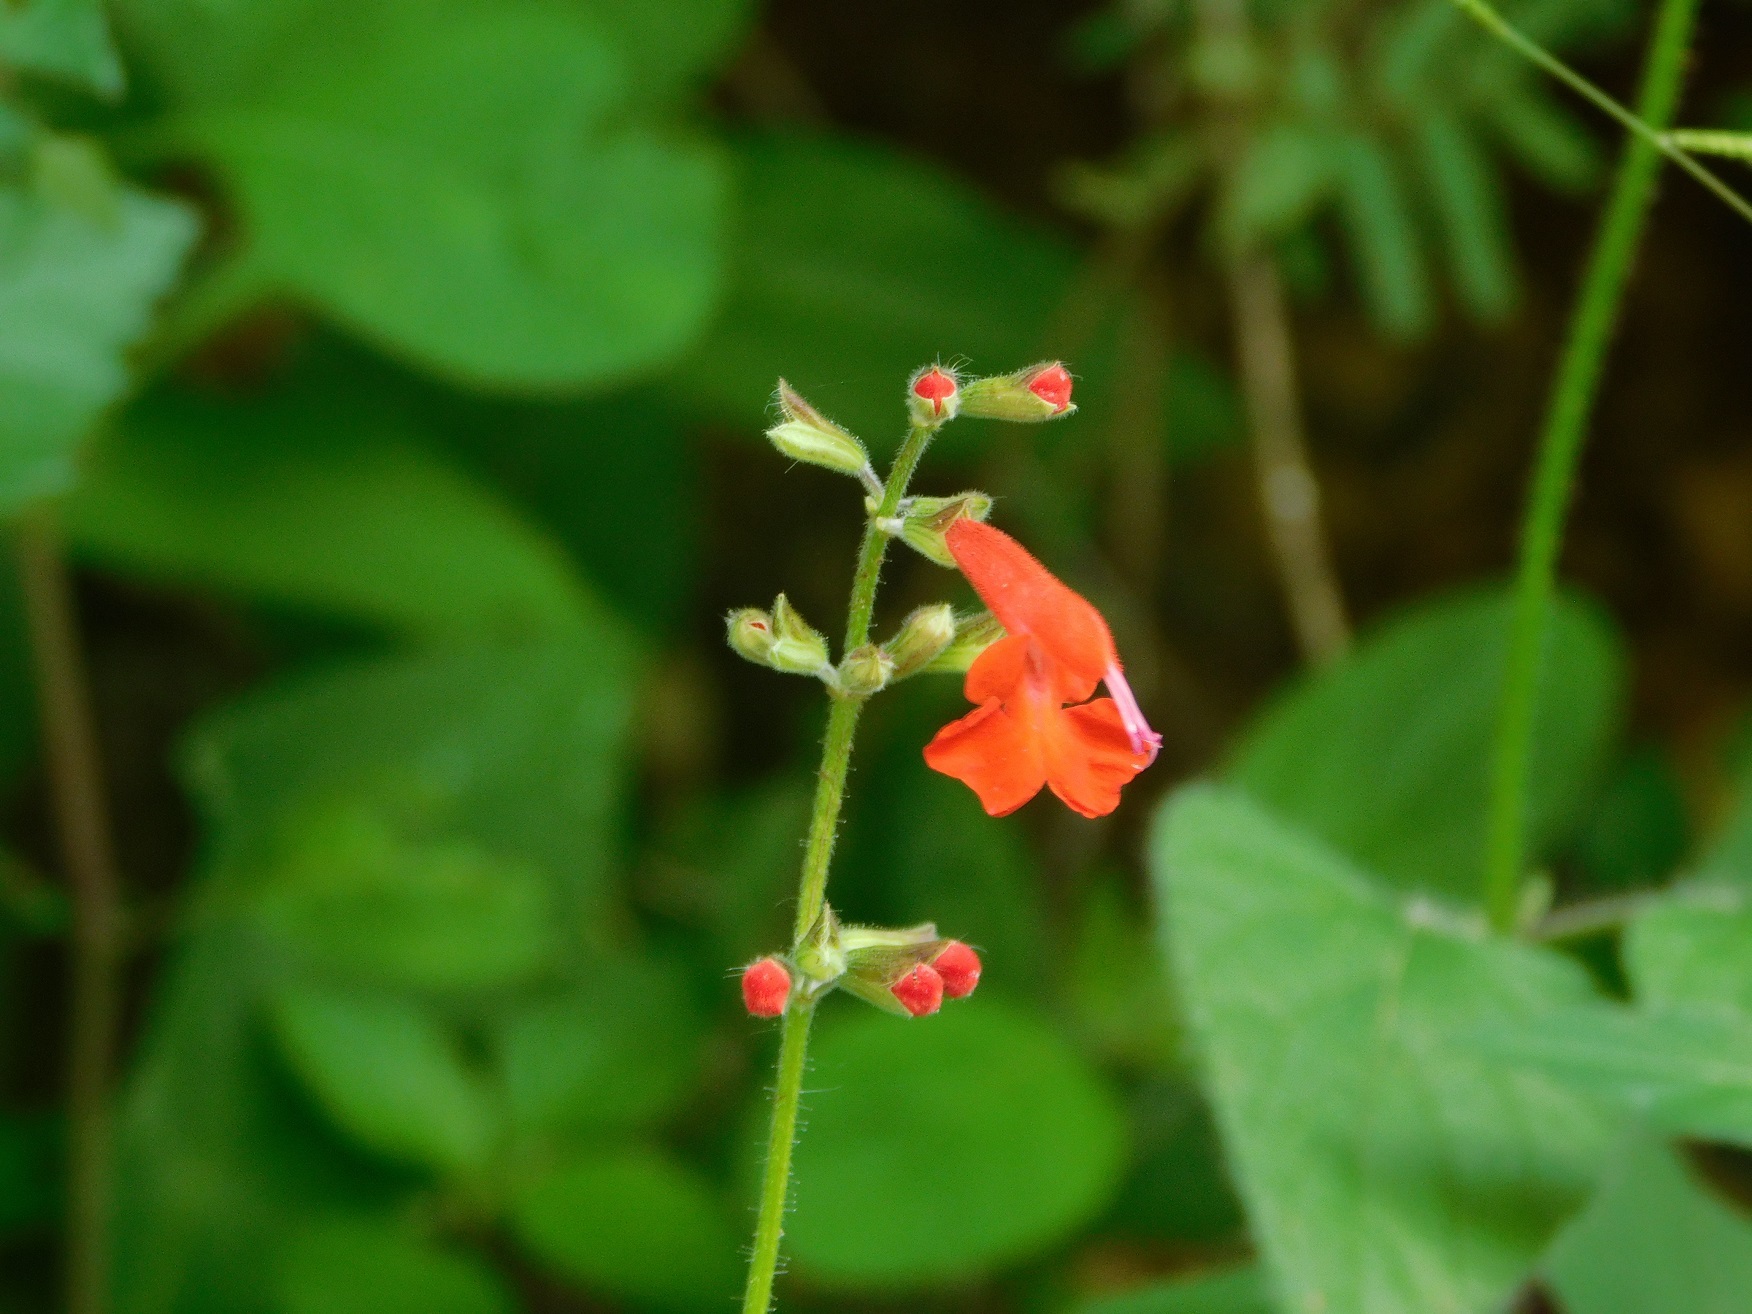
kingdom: Plantae
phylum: Tracheophyta
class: Magnoliopsida
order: Lamiales
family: Lamiaceae
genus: Salvia
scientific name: Salvia coccinea
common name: Blood sage
